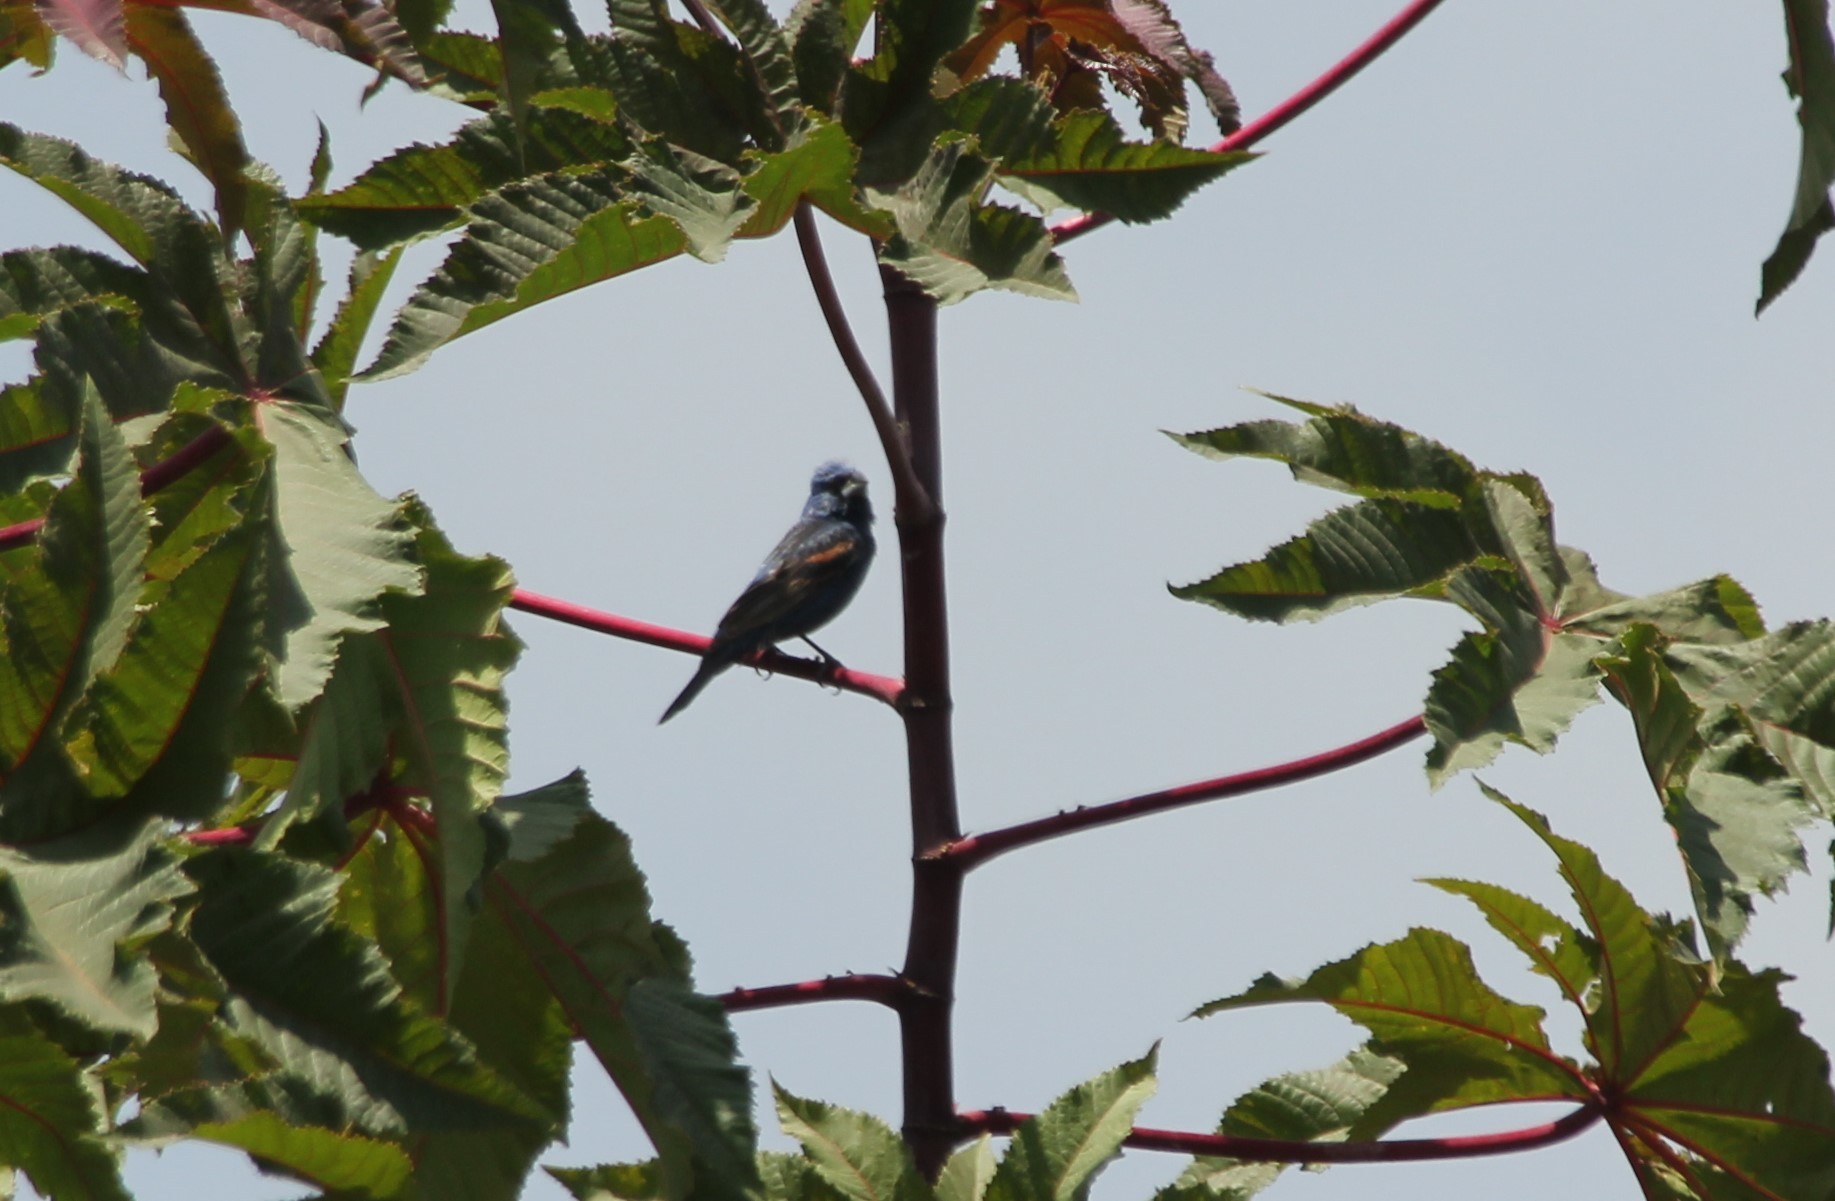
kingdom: Animalia
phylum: Chordata
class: Aves
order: Passeriformes
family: Cardinalidae
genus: Passerina
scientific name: Passerina caerulea
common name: Blue grosbeak
